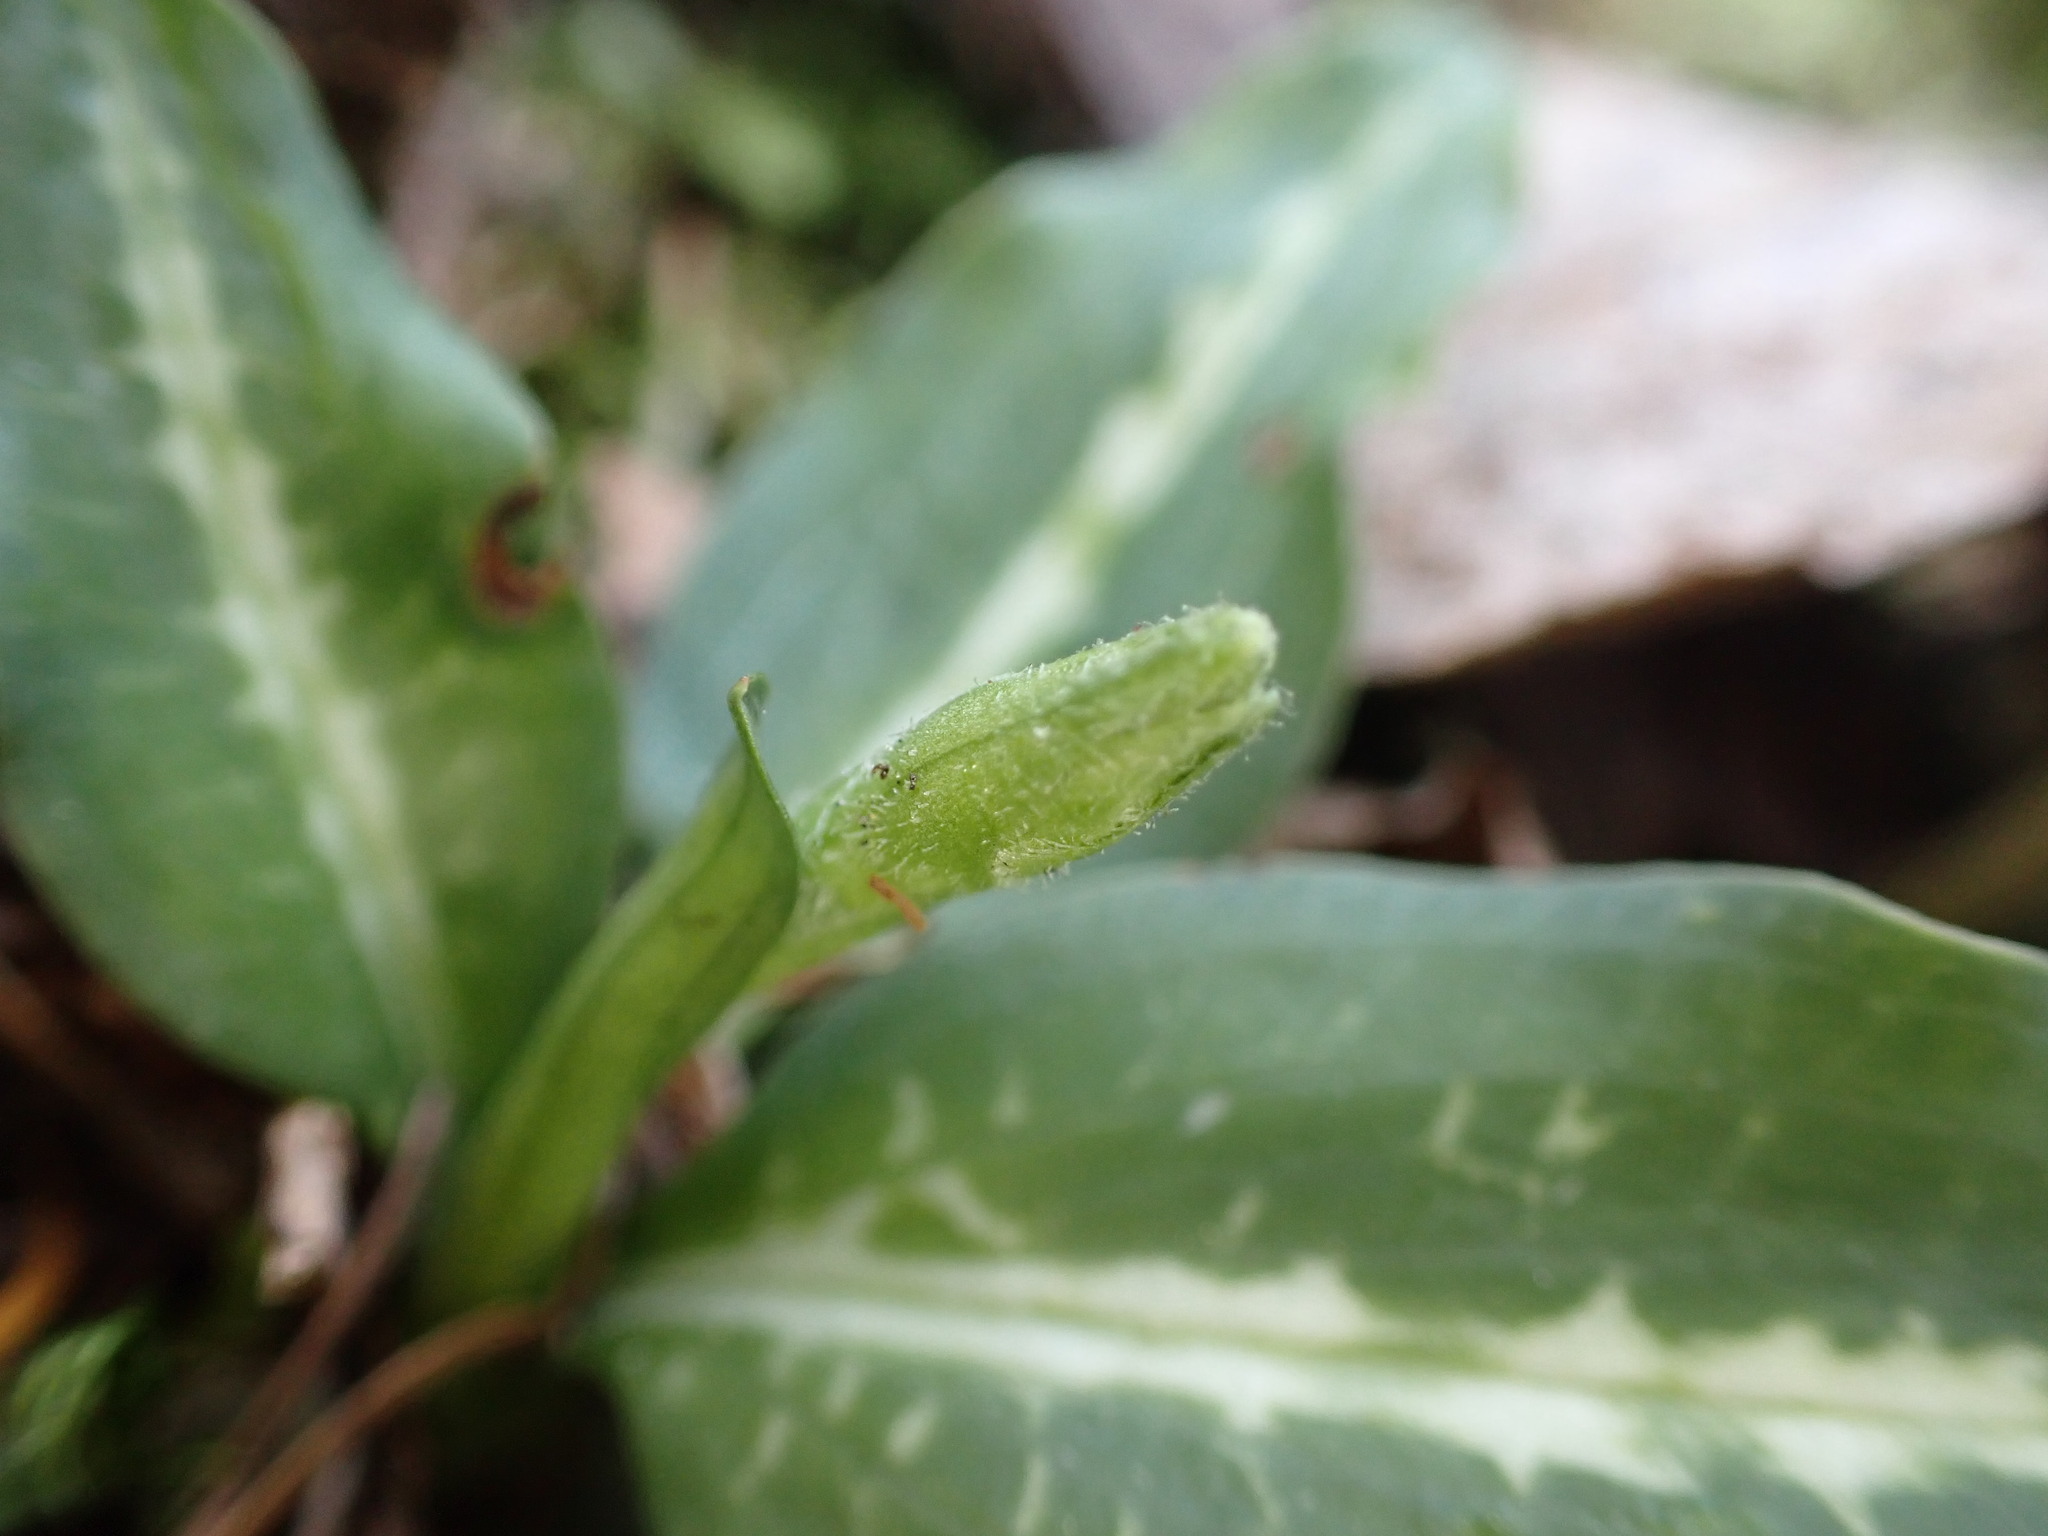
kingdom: Plantae
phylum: Tracheophyta
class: Liliopsida
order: Asparagales
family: Orchidaceae
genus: Goodyera
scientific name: Goodyera oblongifolia
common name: Giant rattlesnake-plantain
